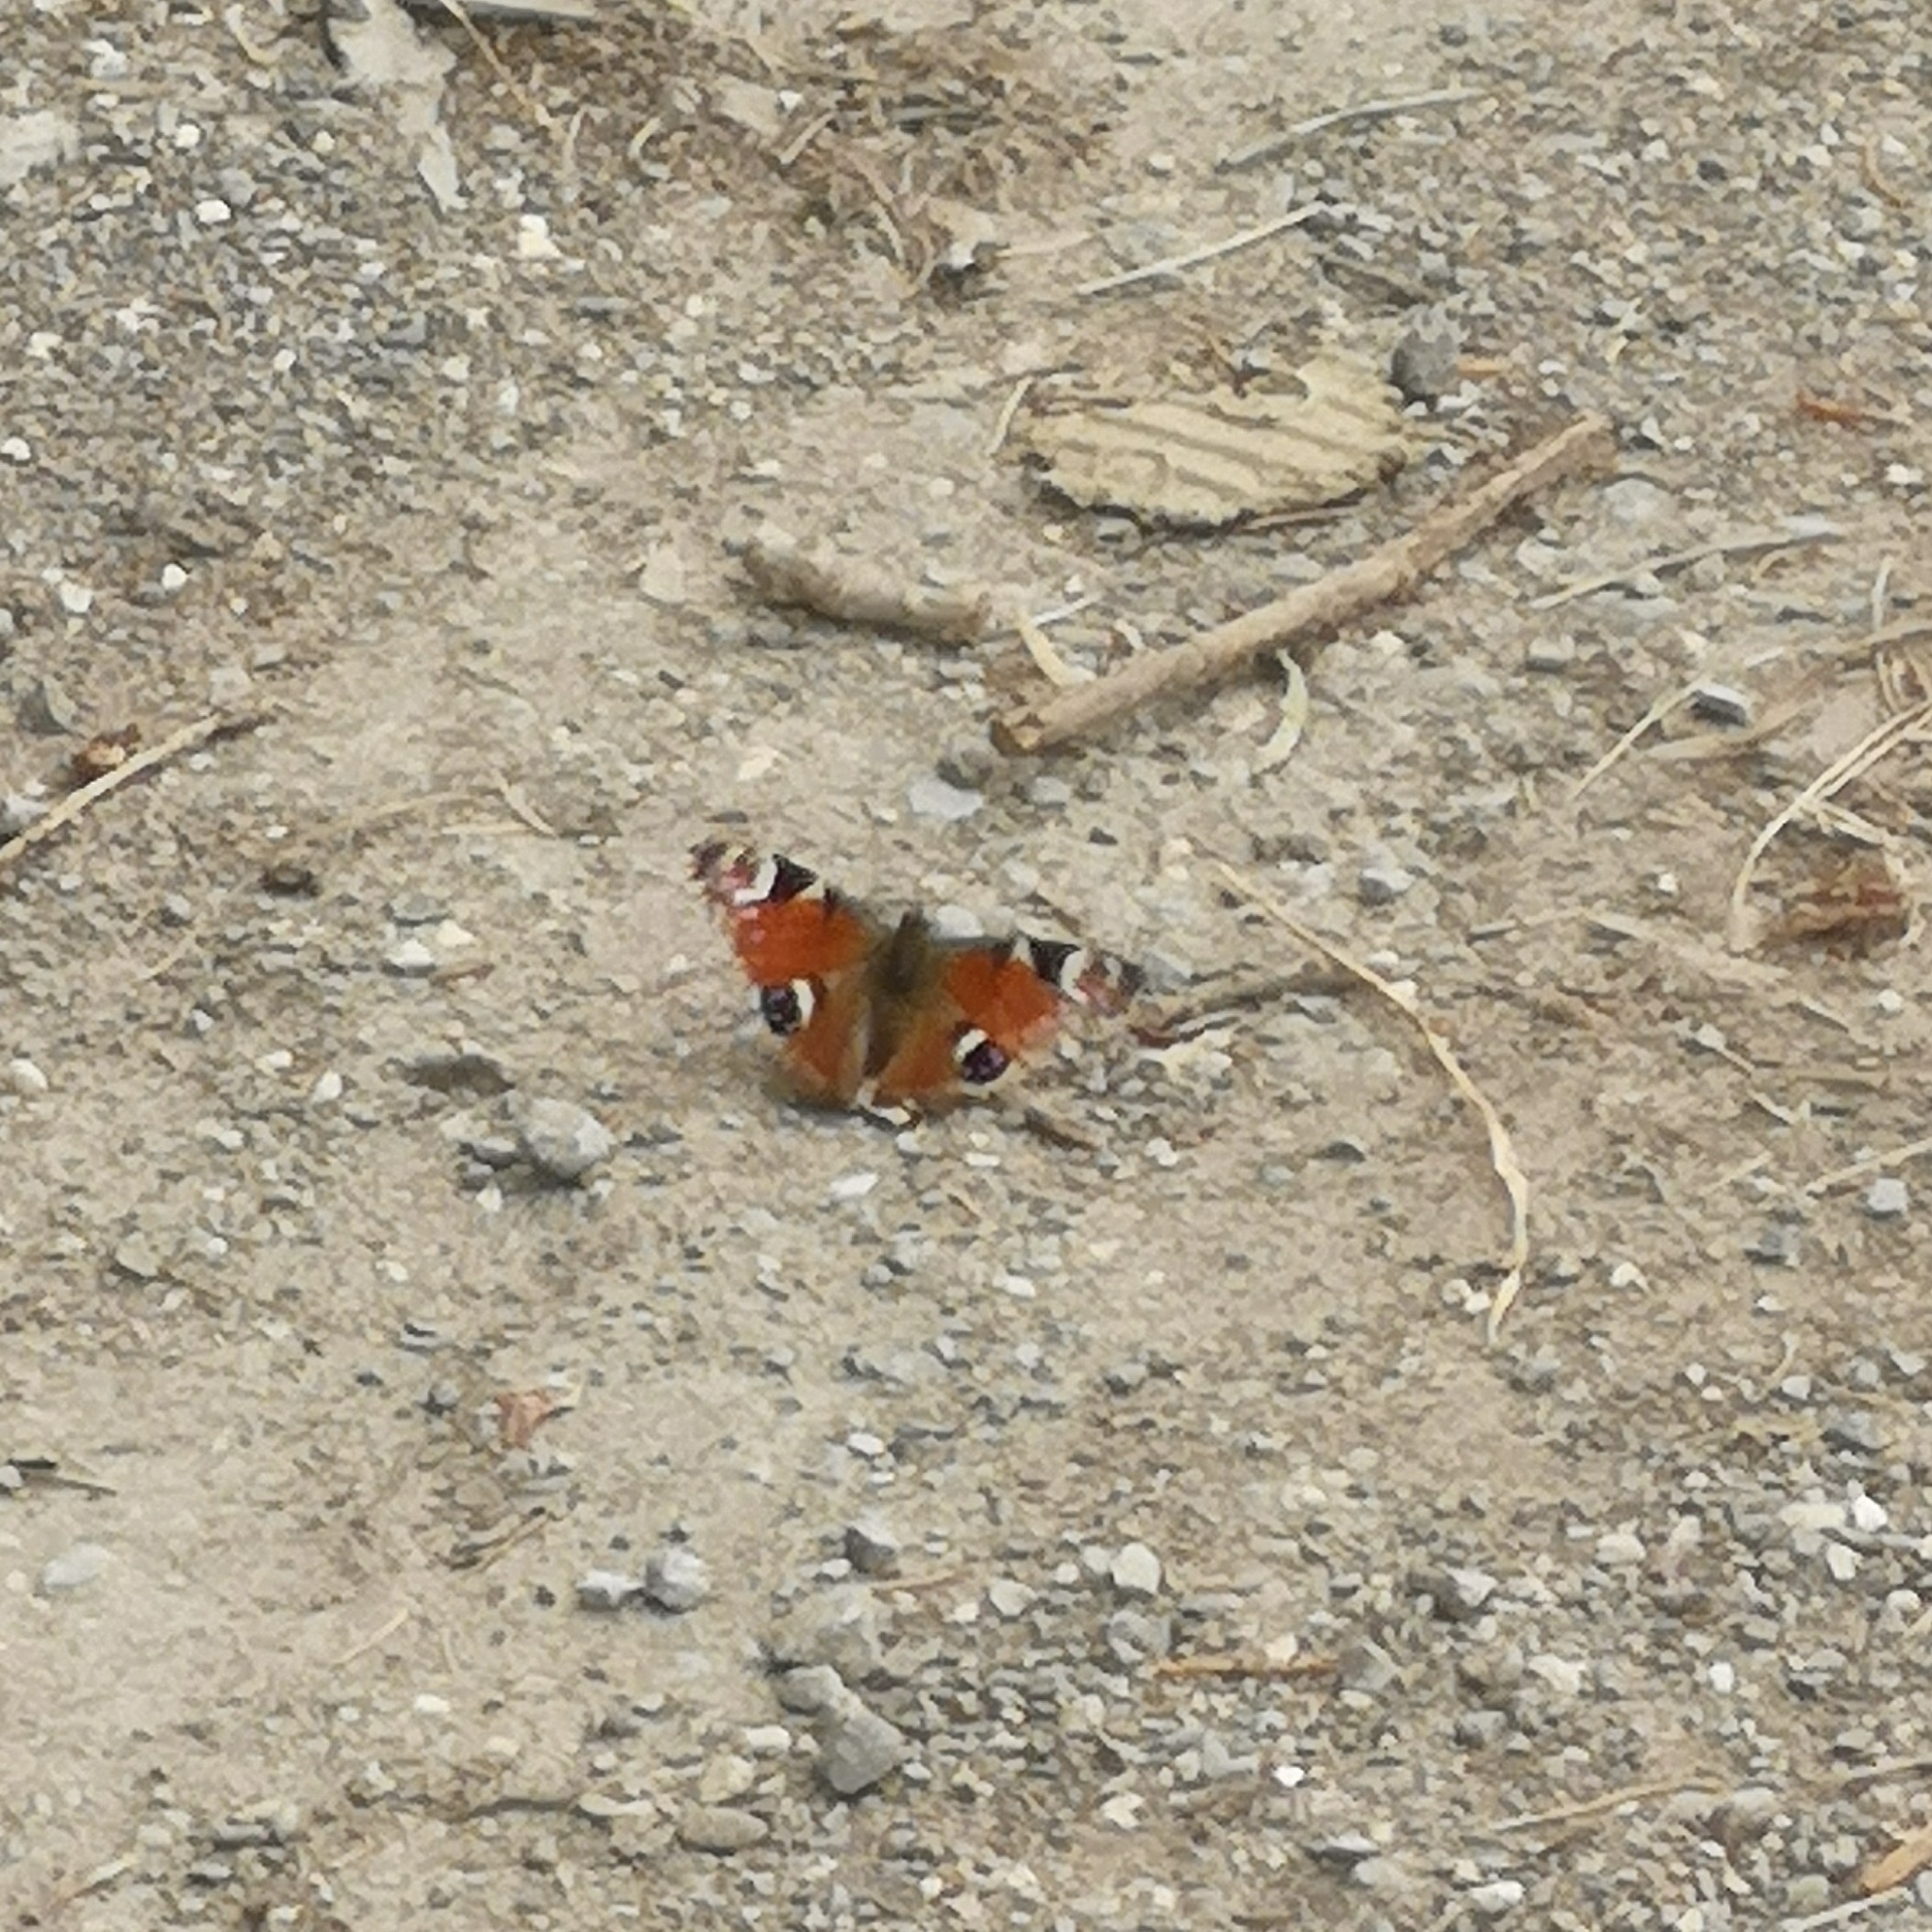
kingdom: Animalia
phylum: Arthropoda
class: Insecta
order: Lepidoptera
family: Nymphalidae
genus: Aglais
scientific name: Aglais io
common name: Peacock
